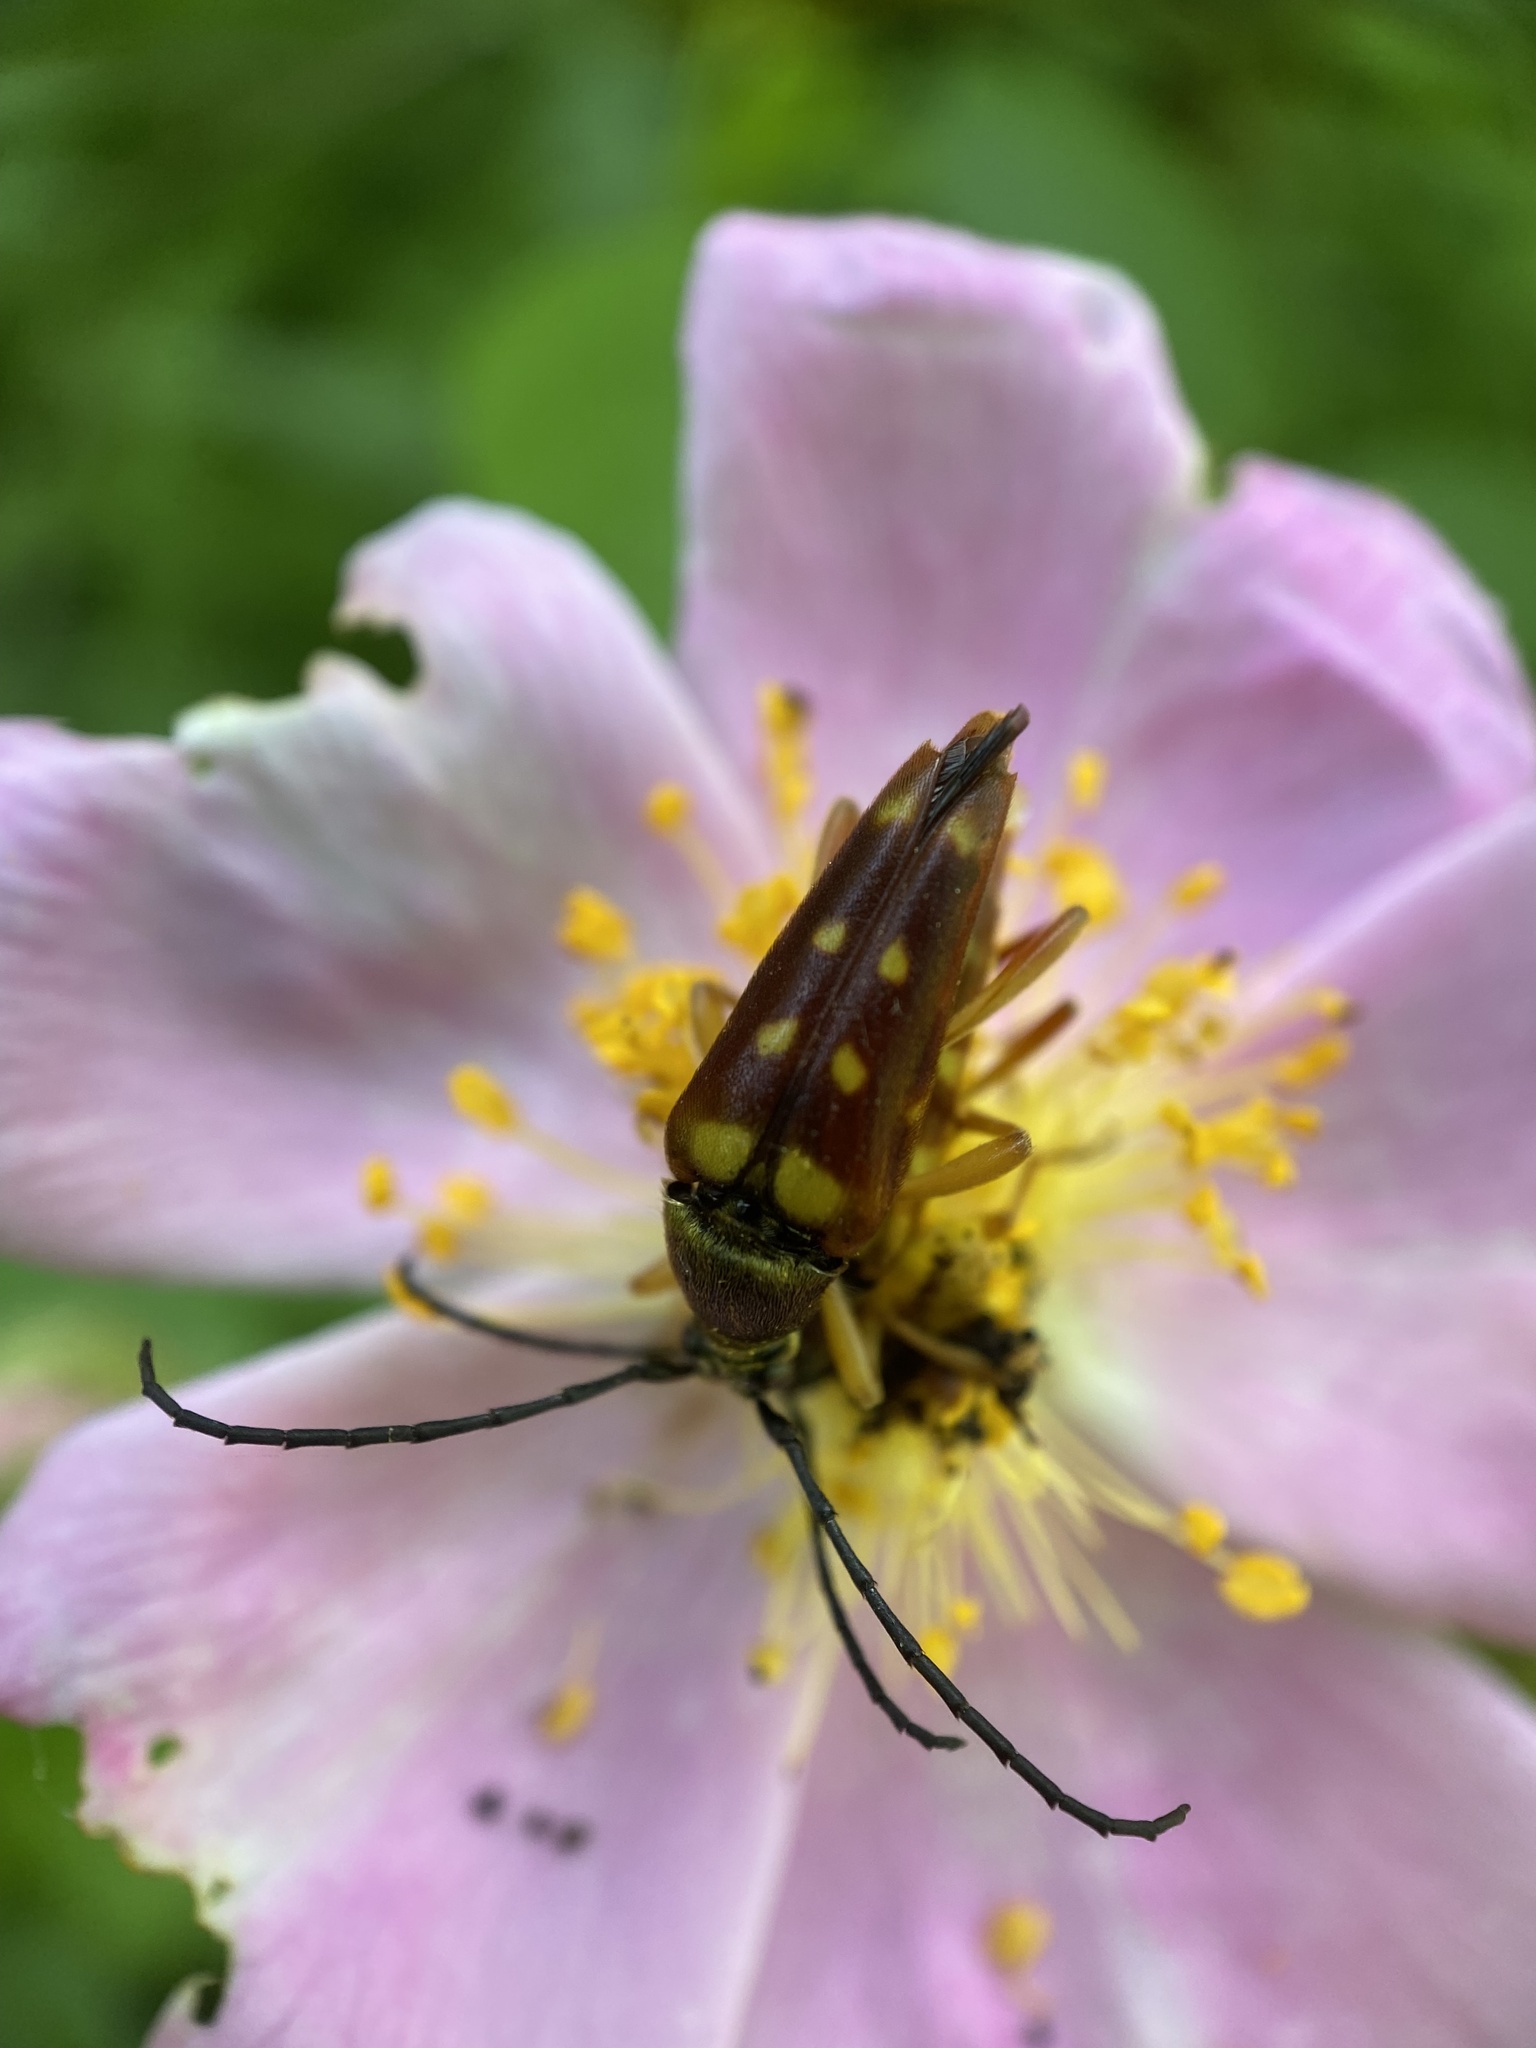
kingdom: Animalia
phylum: Arthropoda
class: Insecta
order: Coleoptera
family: Cerambycidae
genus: Typocerus
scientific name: Typocerus velutinus
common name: Banded longhorn beetle
